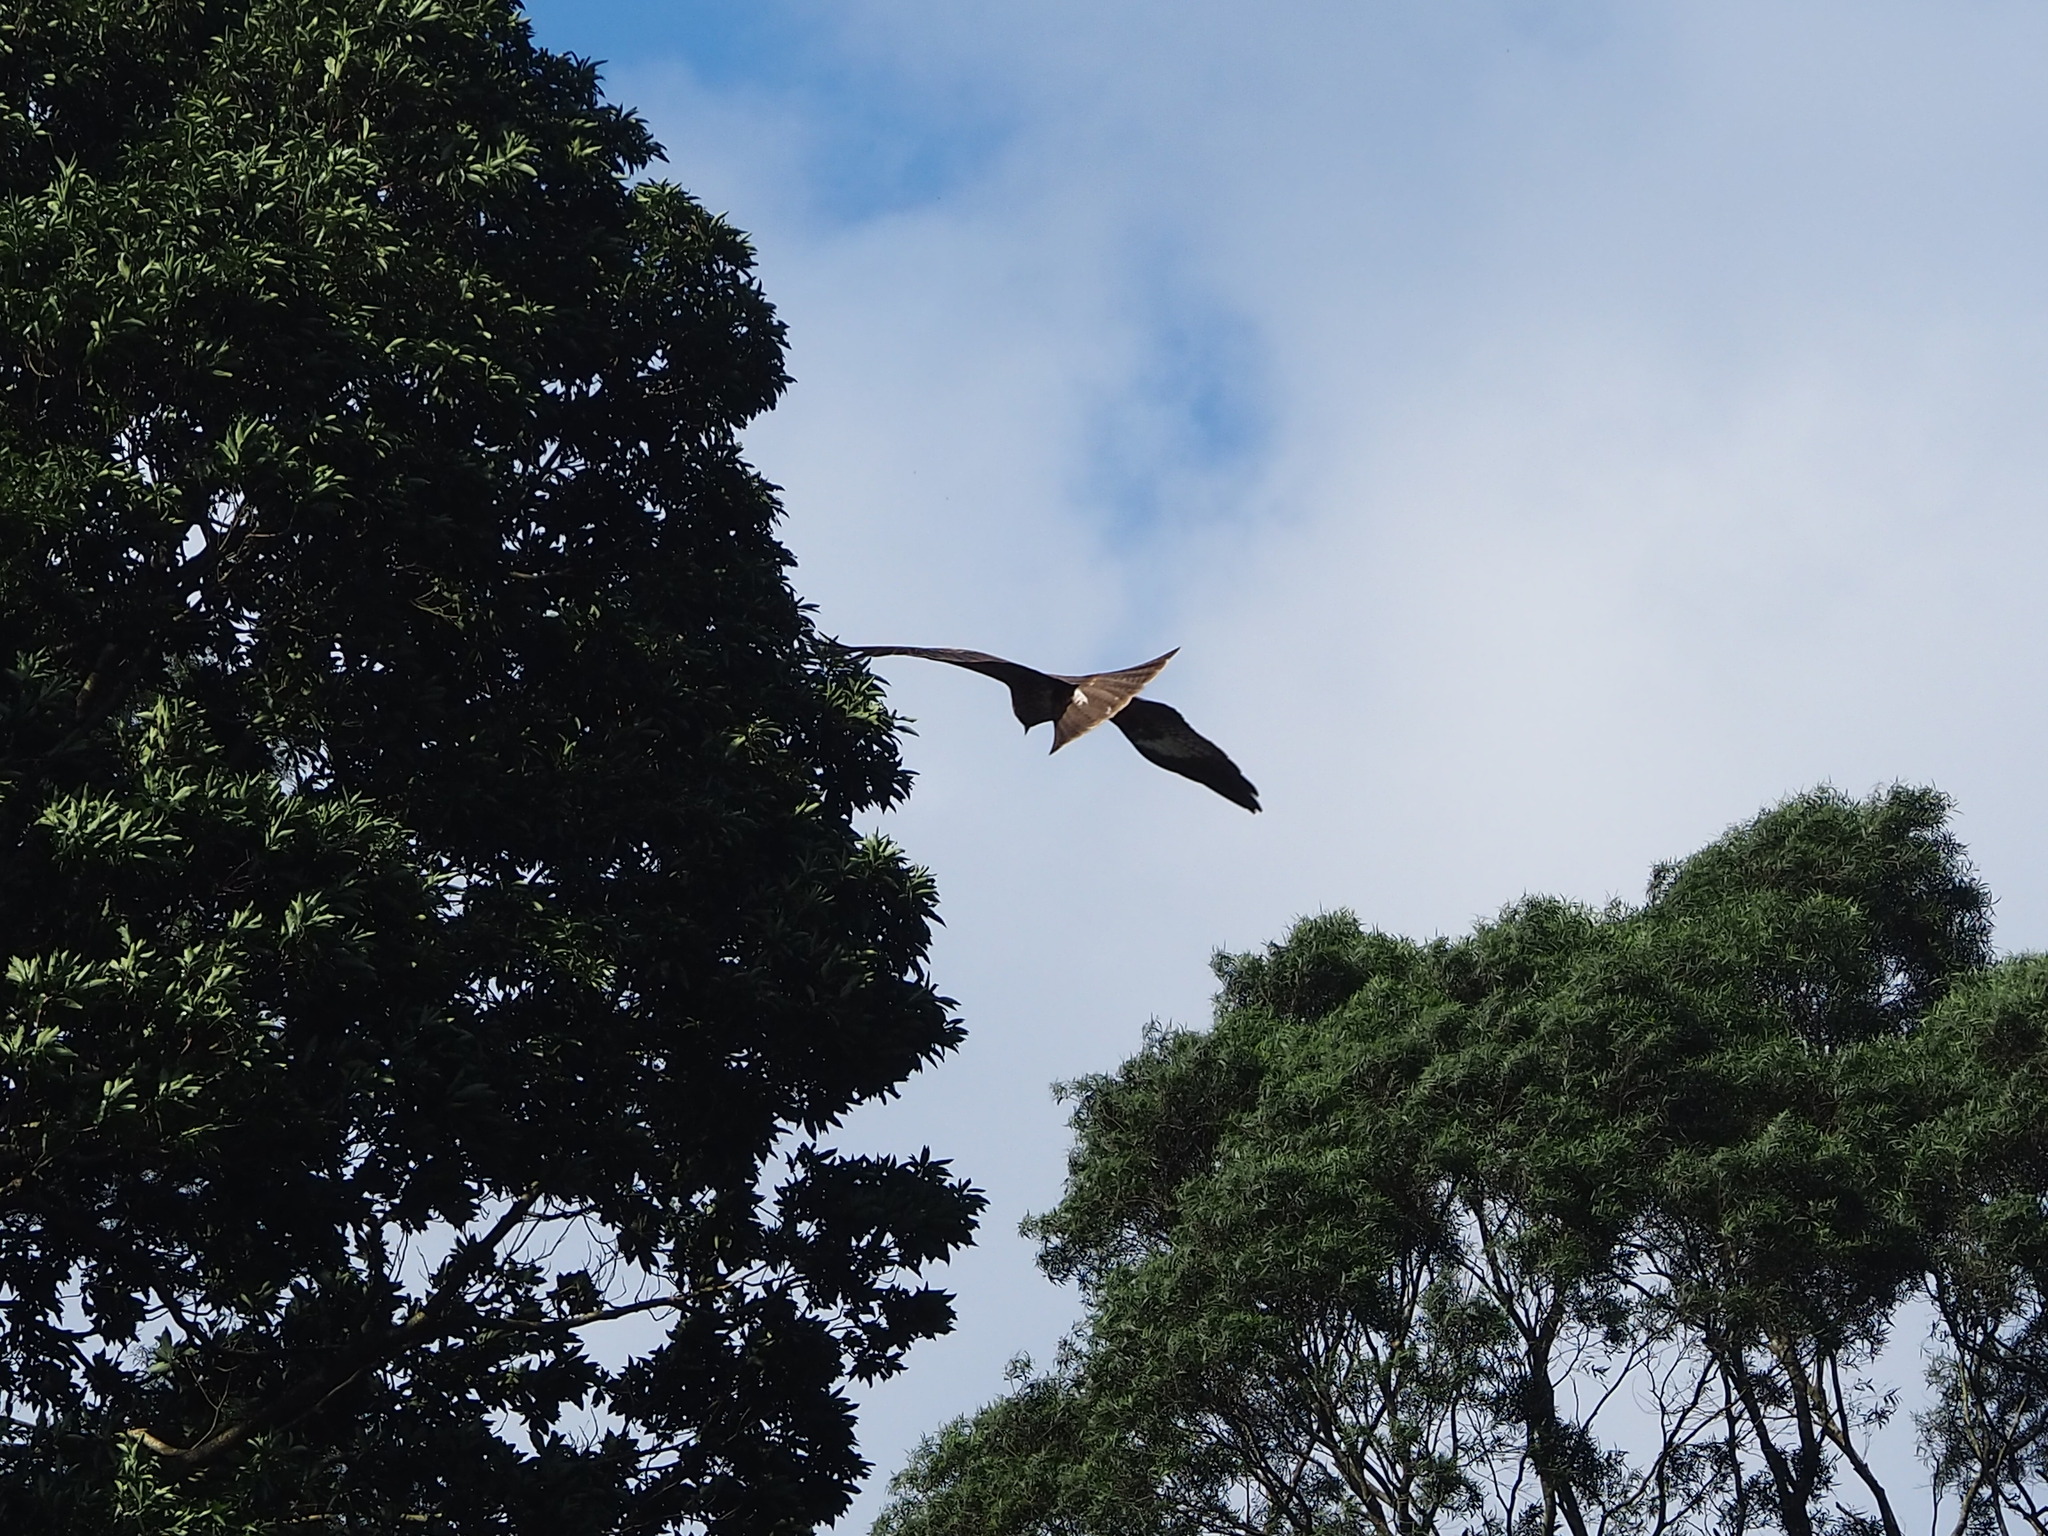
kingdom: Animalia
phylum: Chordata
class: Aves
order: Accipitriformes
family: Accipitridae
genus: Milvus
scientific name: Milvus migrans
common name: Black kite
